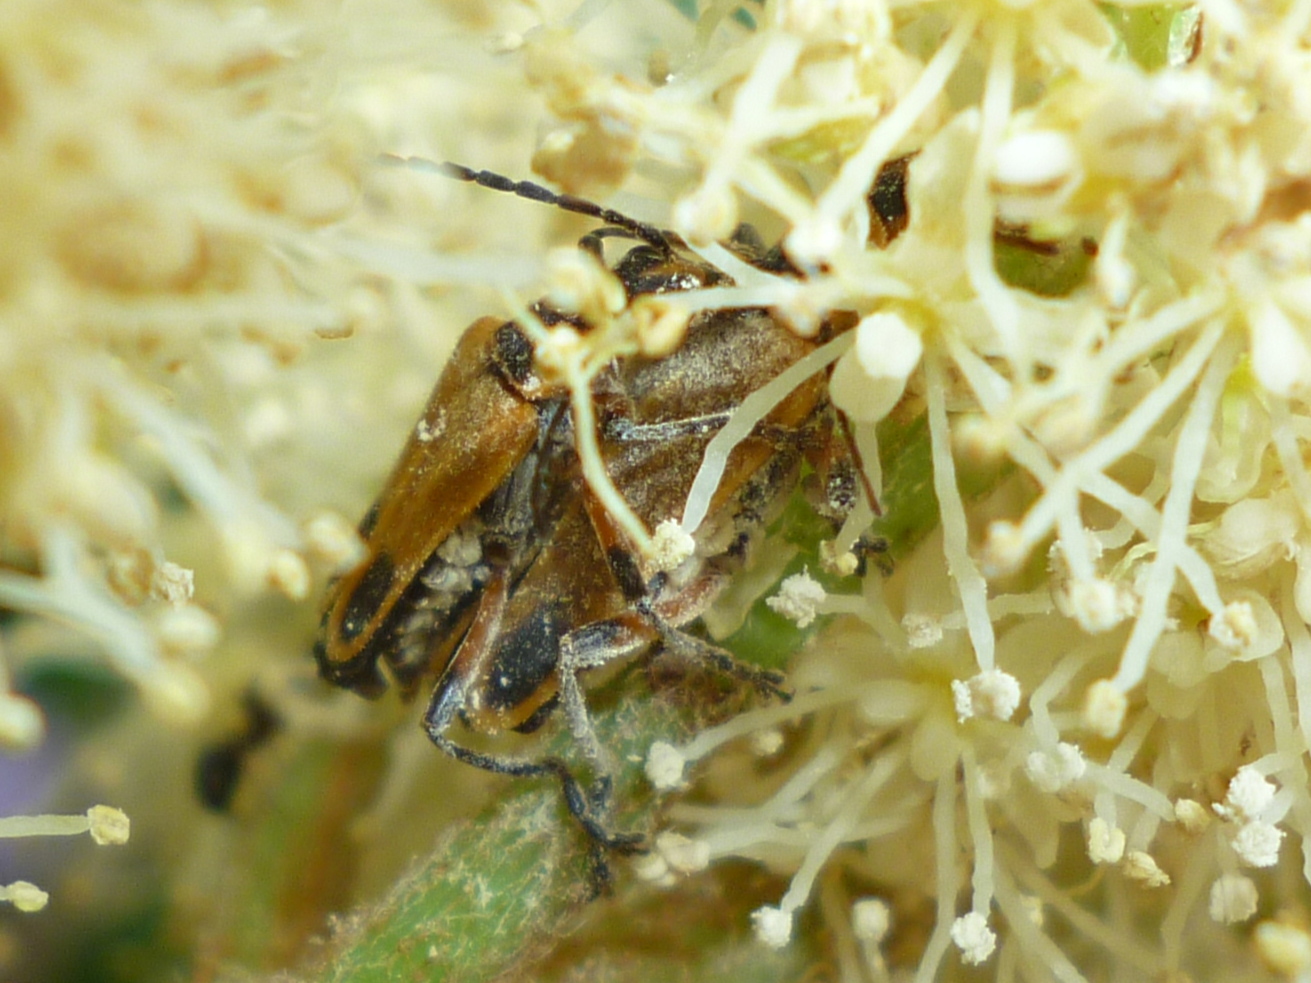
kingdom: Animalia
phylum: Arthropoda
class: Insecta
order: Coleoptera
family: Cantharidae
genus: Chauliognathus
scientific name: Chauliognathus marginatus
